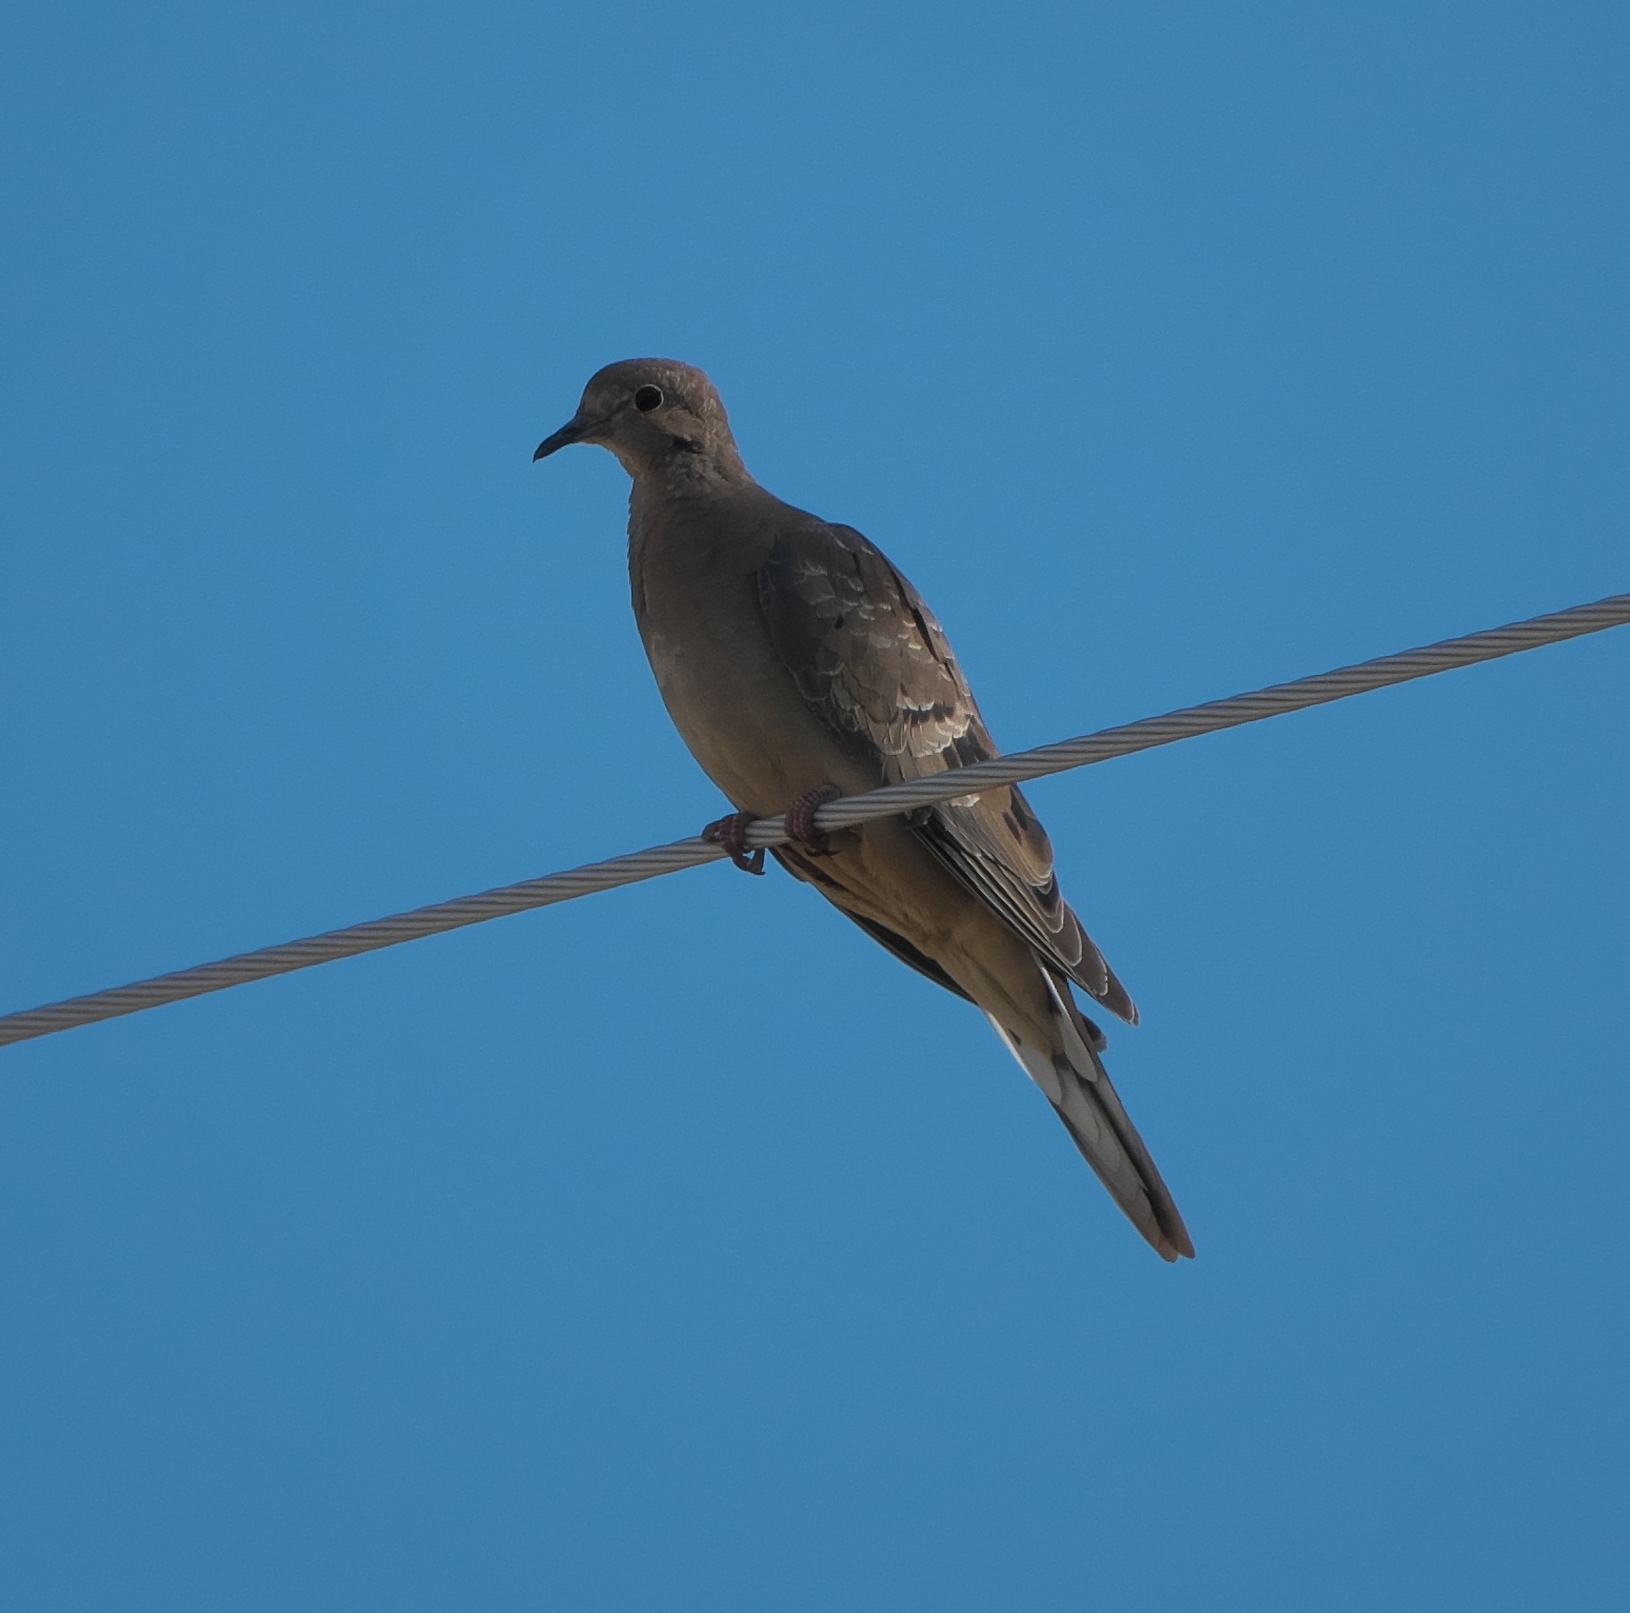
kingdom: Animalia
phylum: Chordata
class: Aves
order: Columbiformes
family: Columbidae
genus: Zenaida
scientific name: Zenaida macroura
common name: Mourning dove
